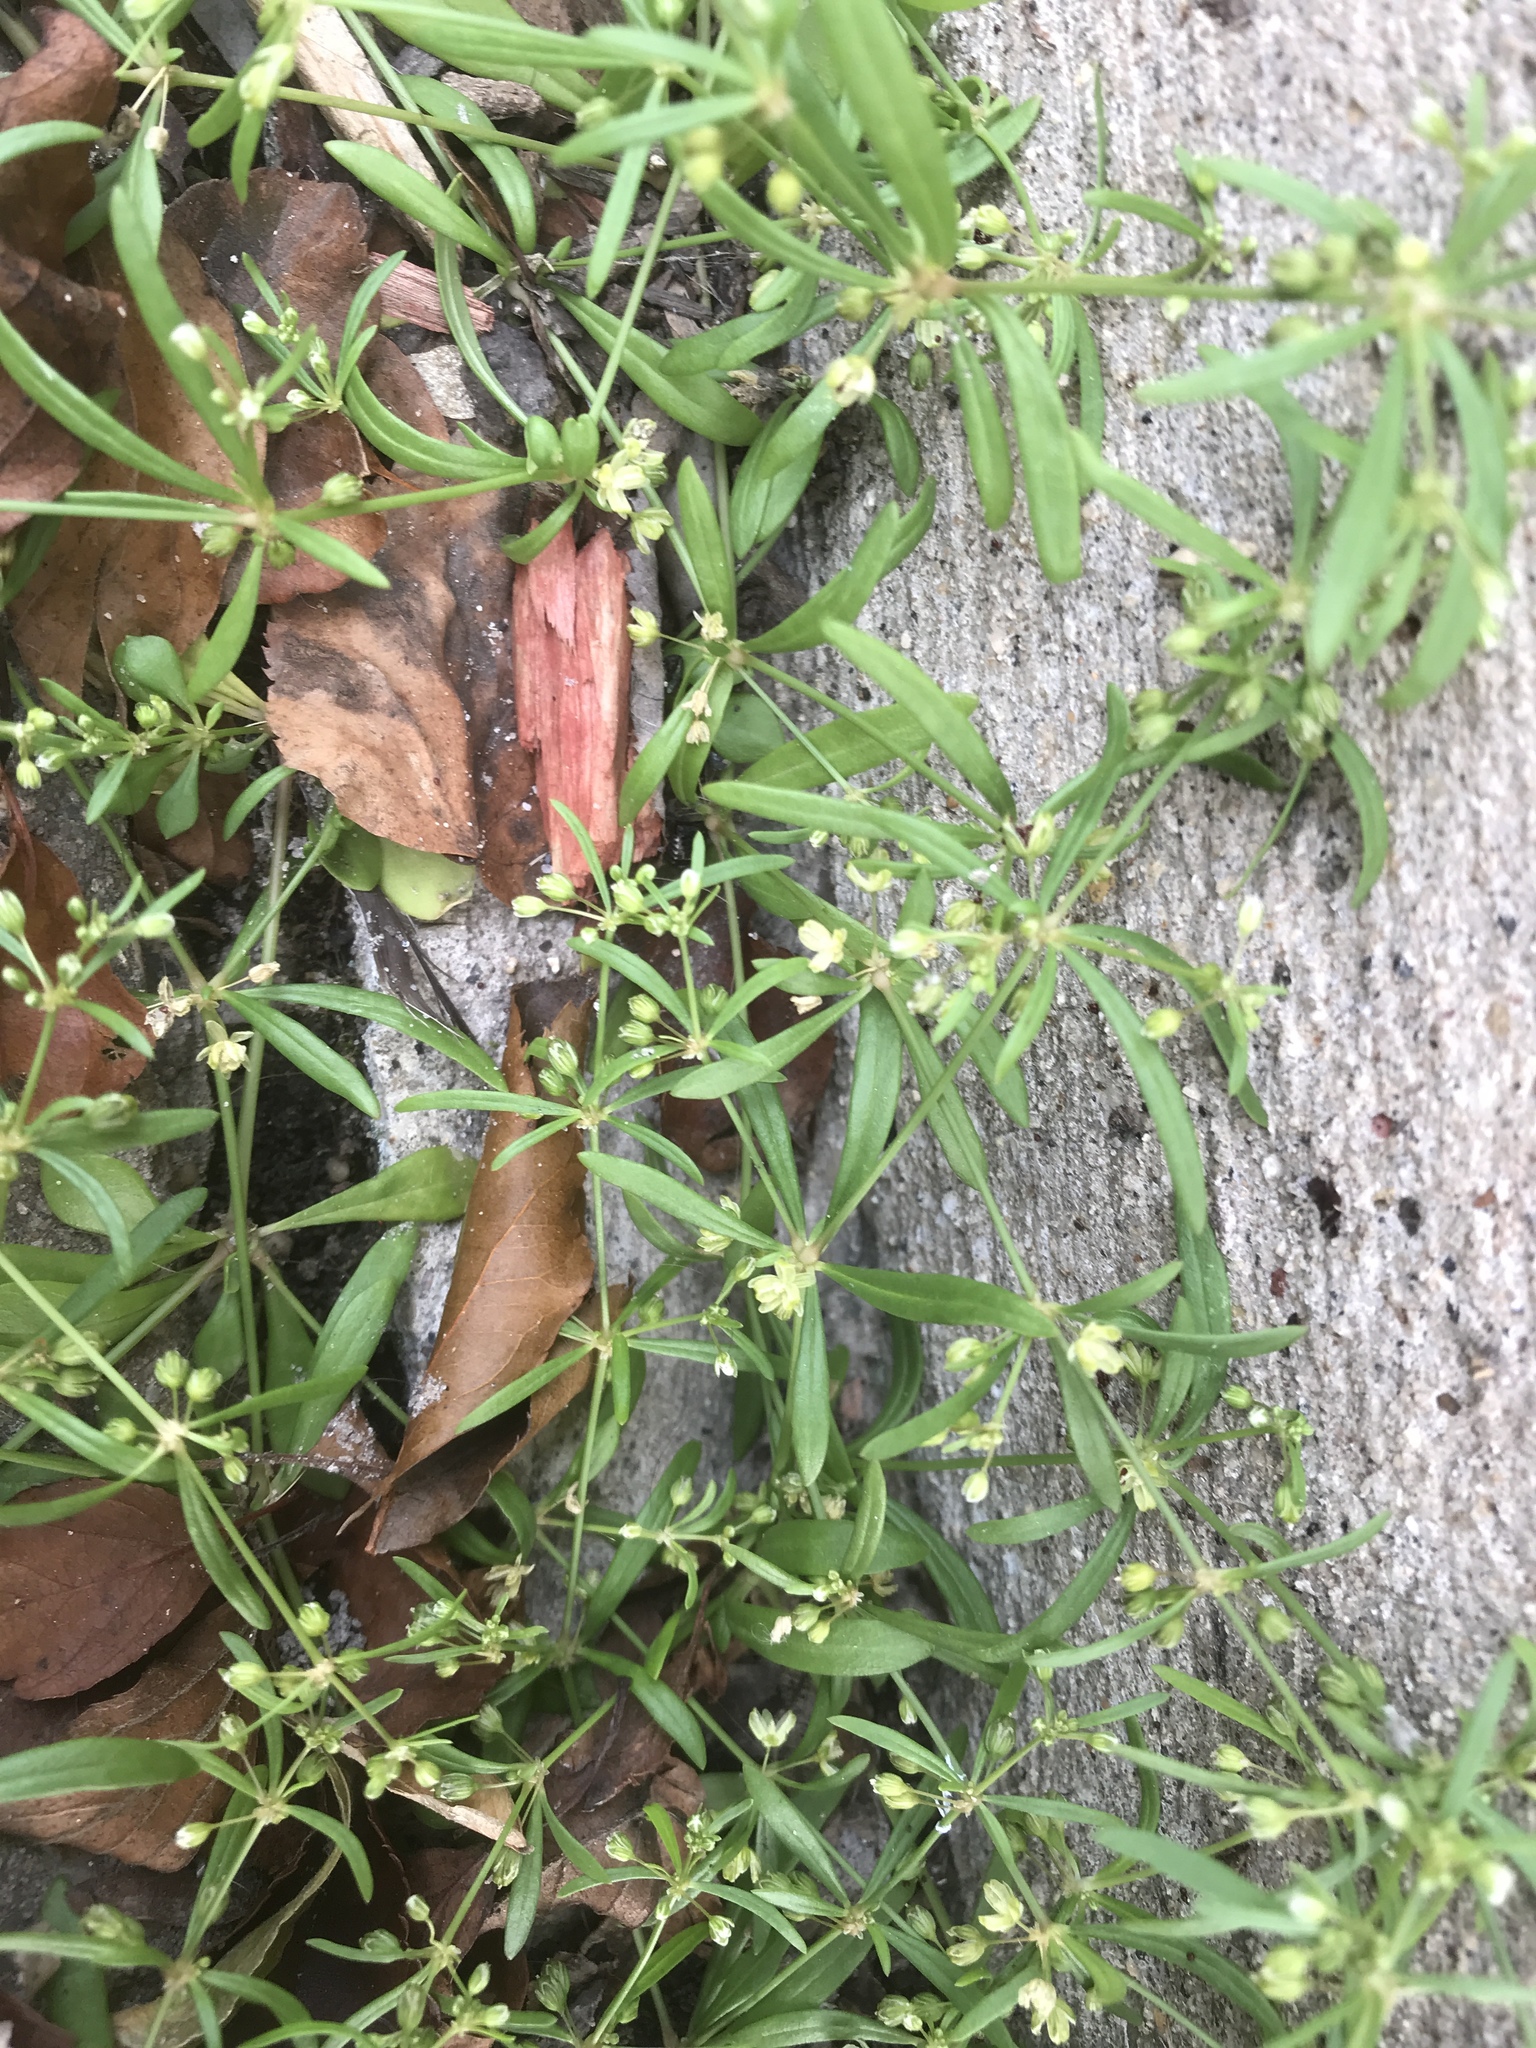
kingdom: Plantae
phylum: Tracheophyta
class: Magnoliopsida
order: Caryophyllales
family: Molluginaceae
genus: Mollugo
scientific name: Mollugo verticillata
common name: Green carpetweed
